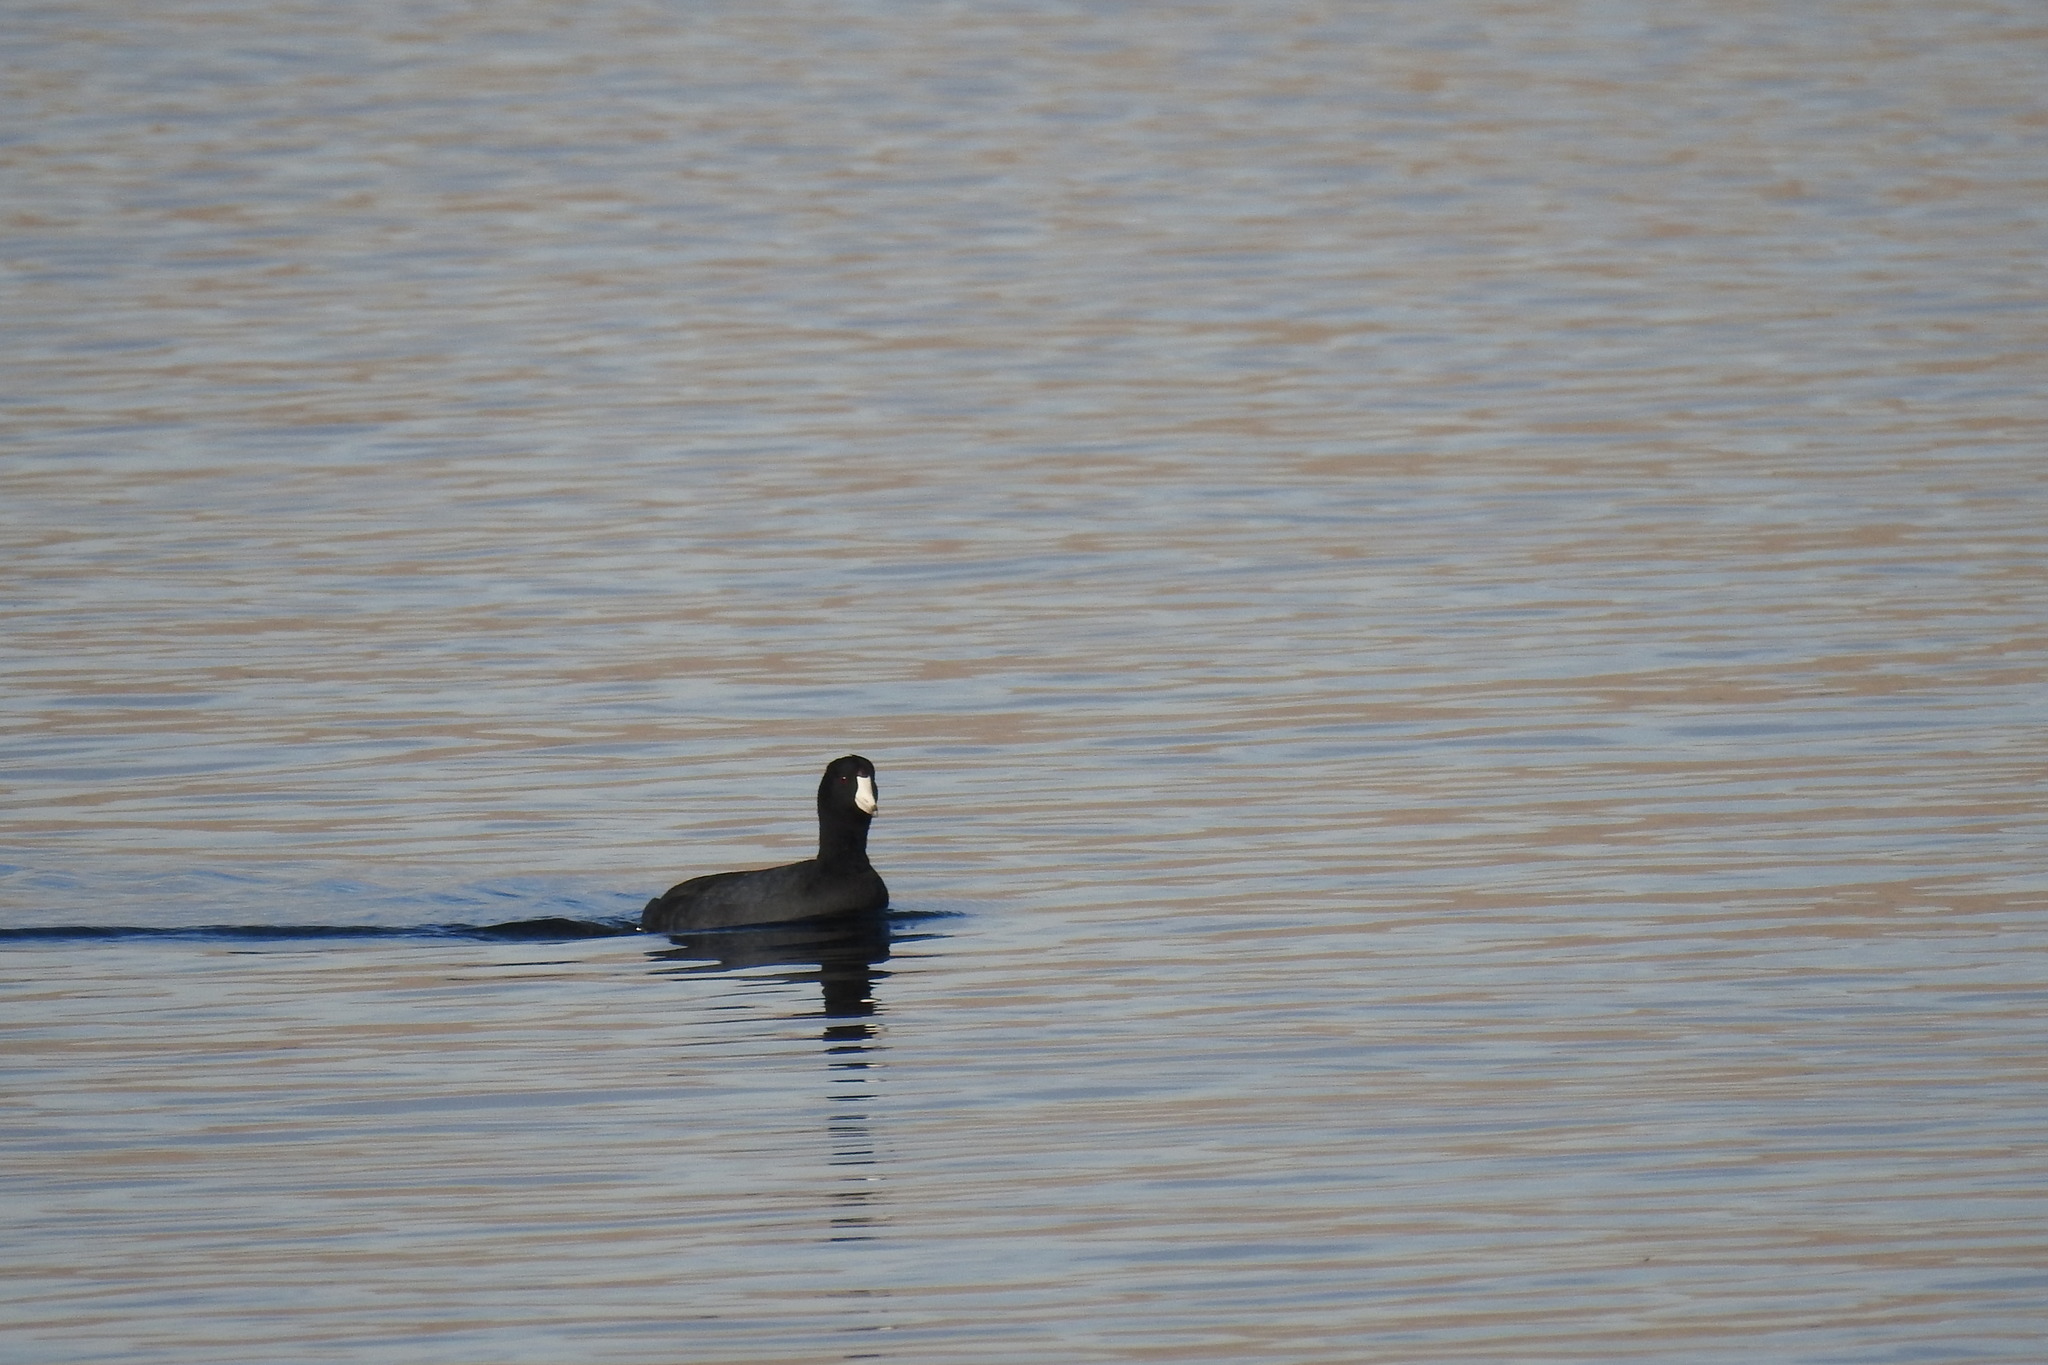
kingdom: Animalia
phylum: Chordata
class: Aves
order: Gruiformes
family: Rallidae
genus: Fulica
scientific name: Fulica americana
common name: American coot
